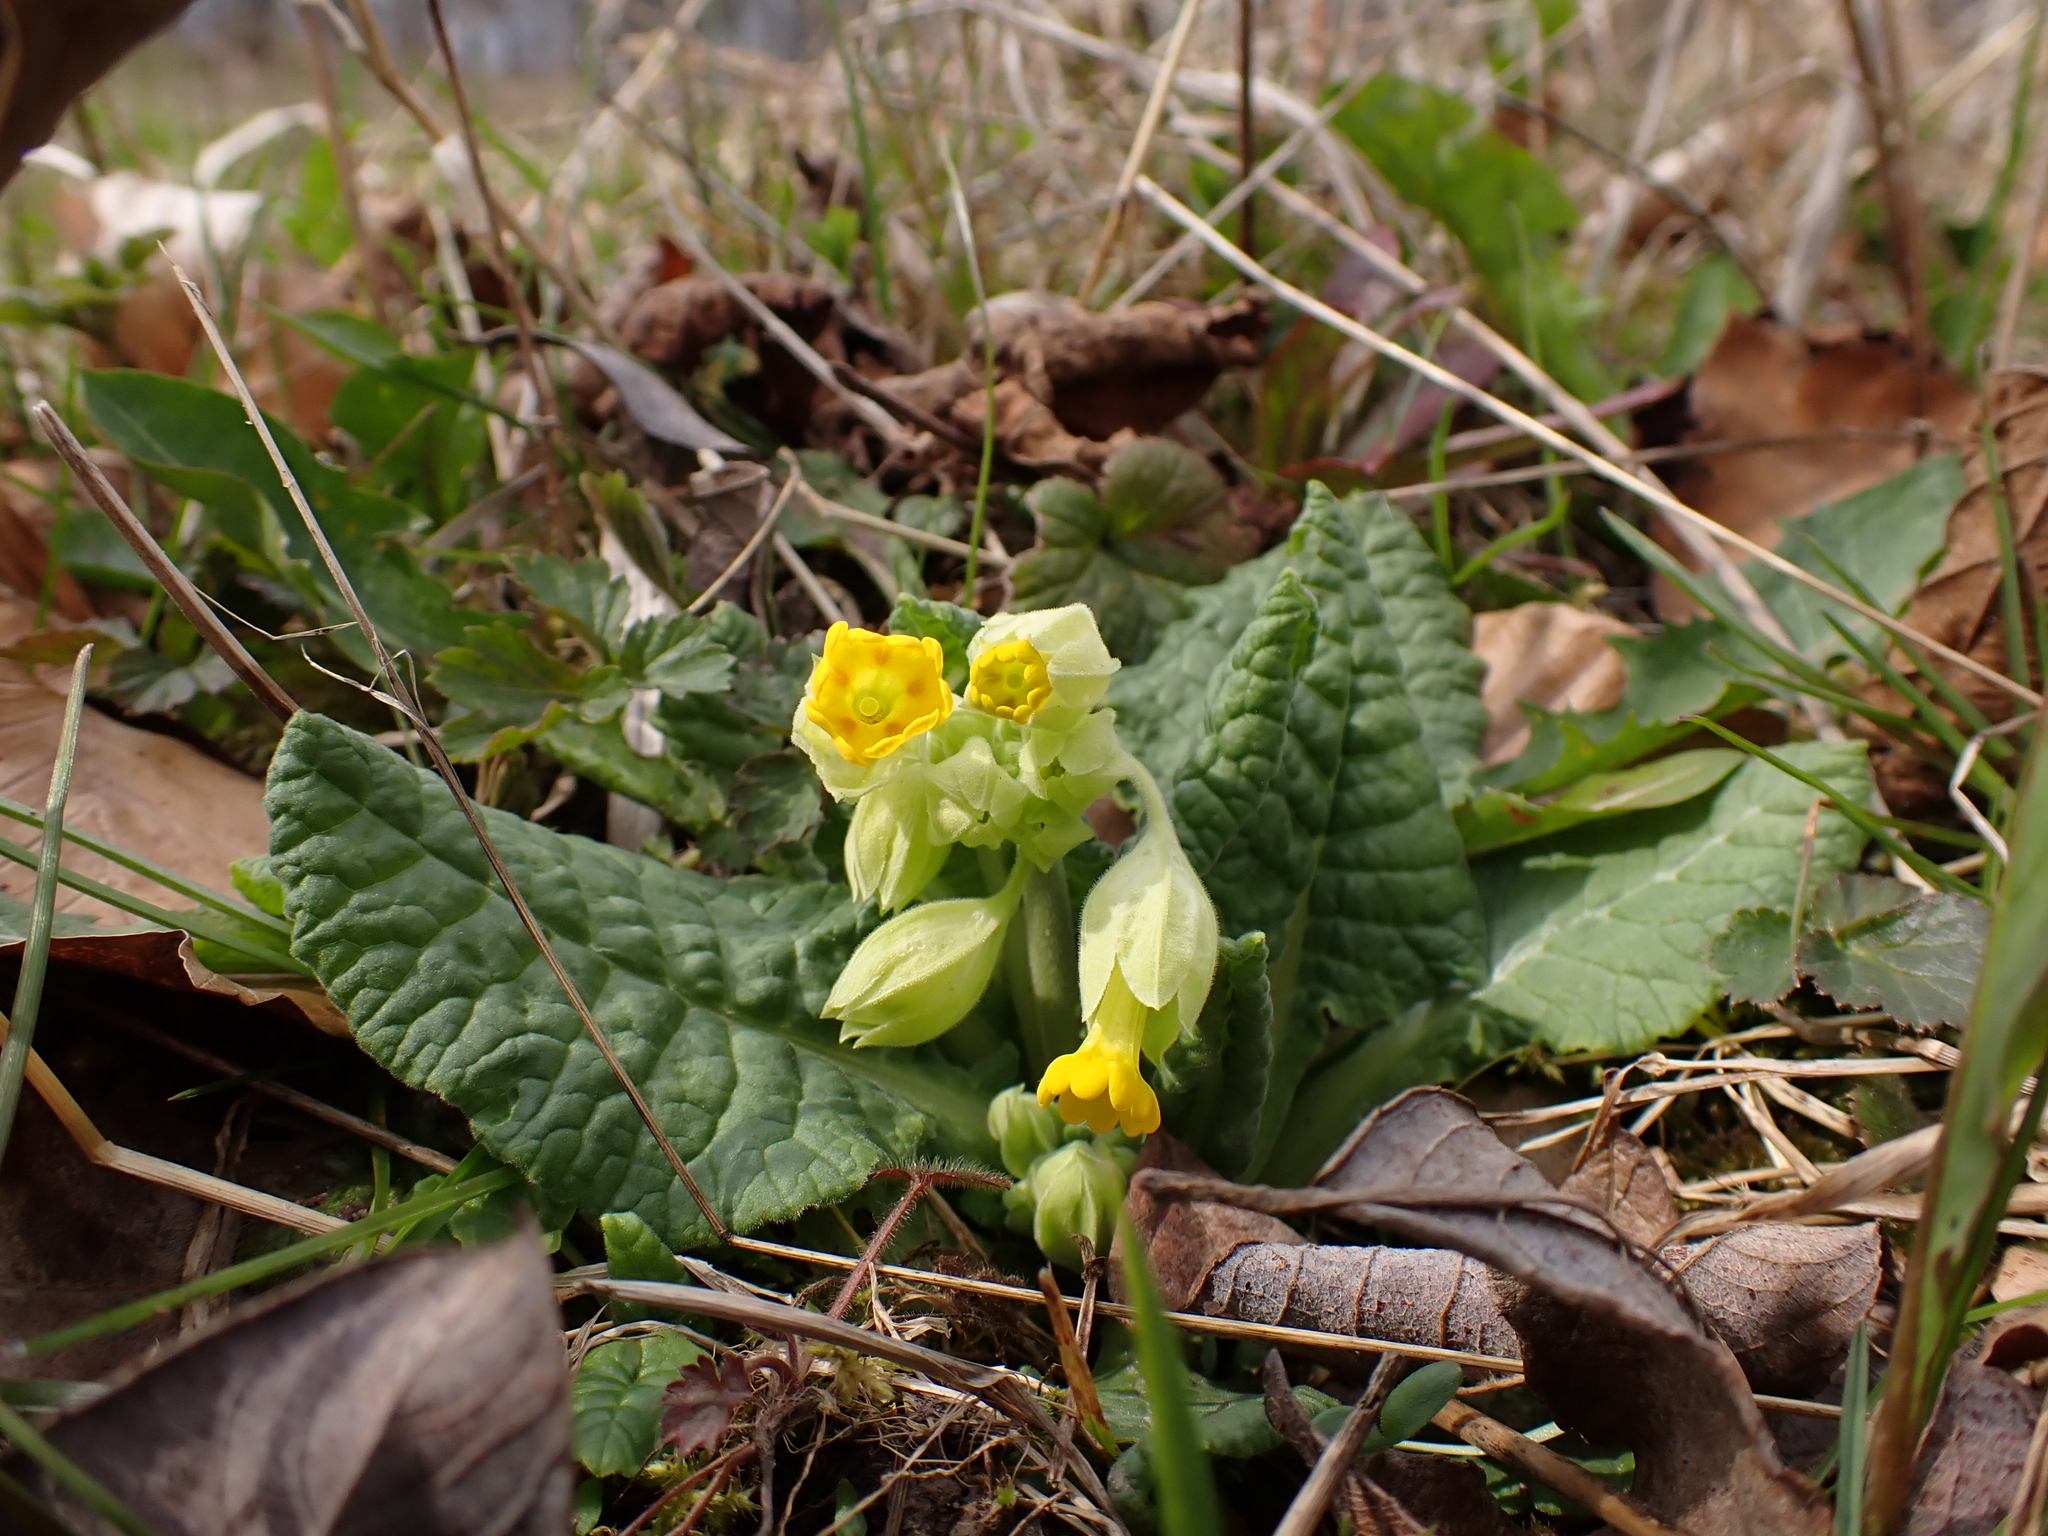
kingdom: Plantae
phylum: Tracheophyta
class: Magnoliopsida
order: Ericales
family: Primulaceae
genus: Primula
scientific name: Primula veris
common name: Cowslip
